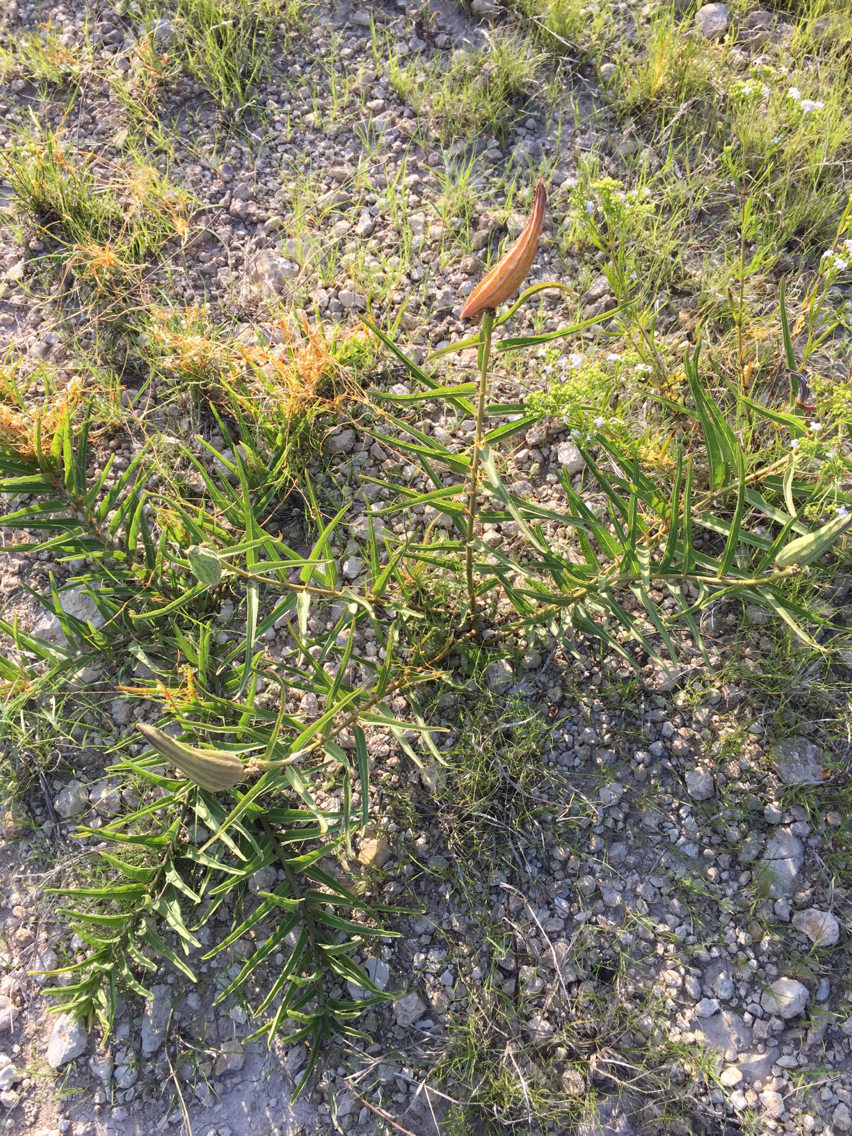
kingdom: Plantae
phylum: Tracheophyta
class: Magnoliopsida
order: Gentianales
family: Apocynaceae
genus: Asclepias
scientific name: Asclepias asperula
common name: Antelope horns
